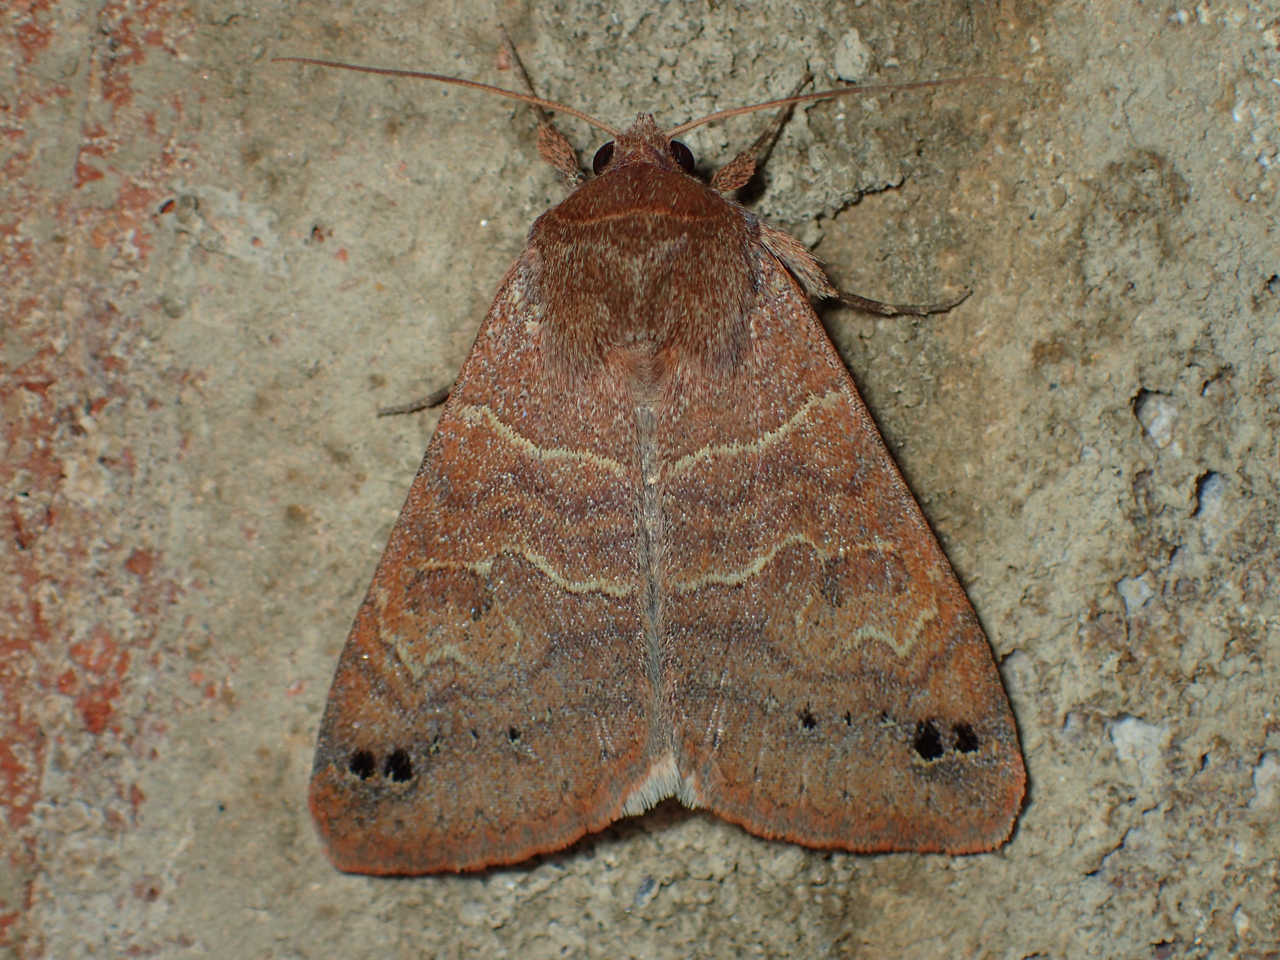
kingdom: Animalia
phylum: Arthropoda
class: Insecta
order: Lepidoptera
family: Erebidae
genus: Cissusa
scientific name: Cissusa spadix
